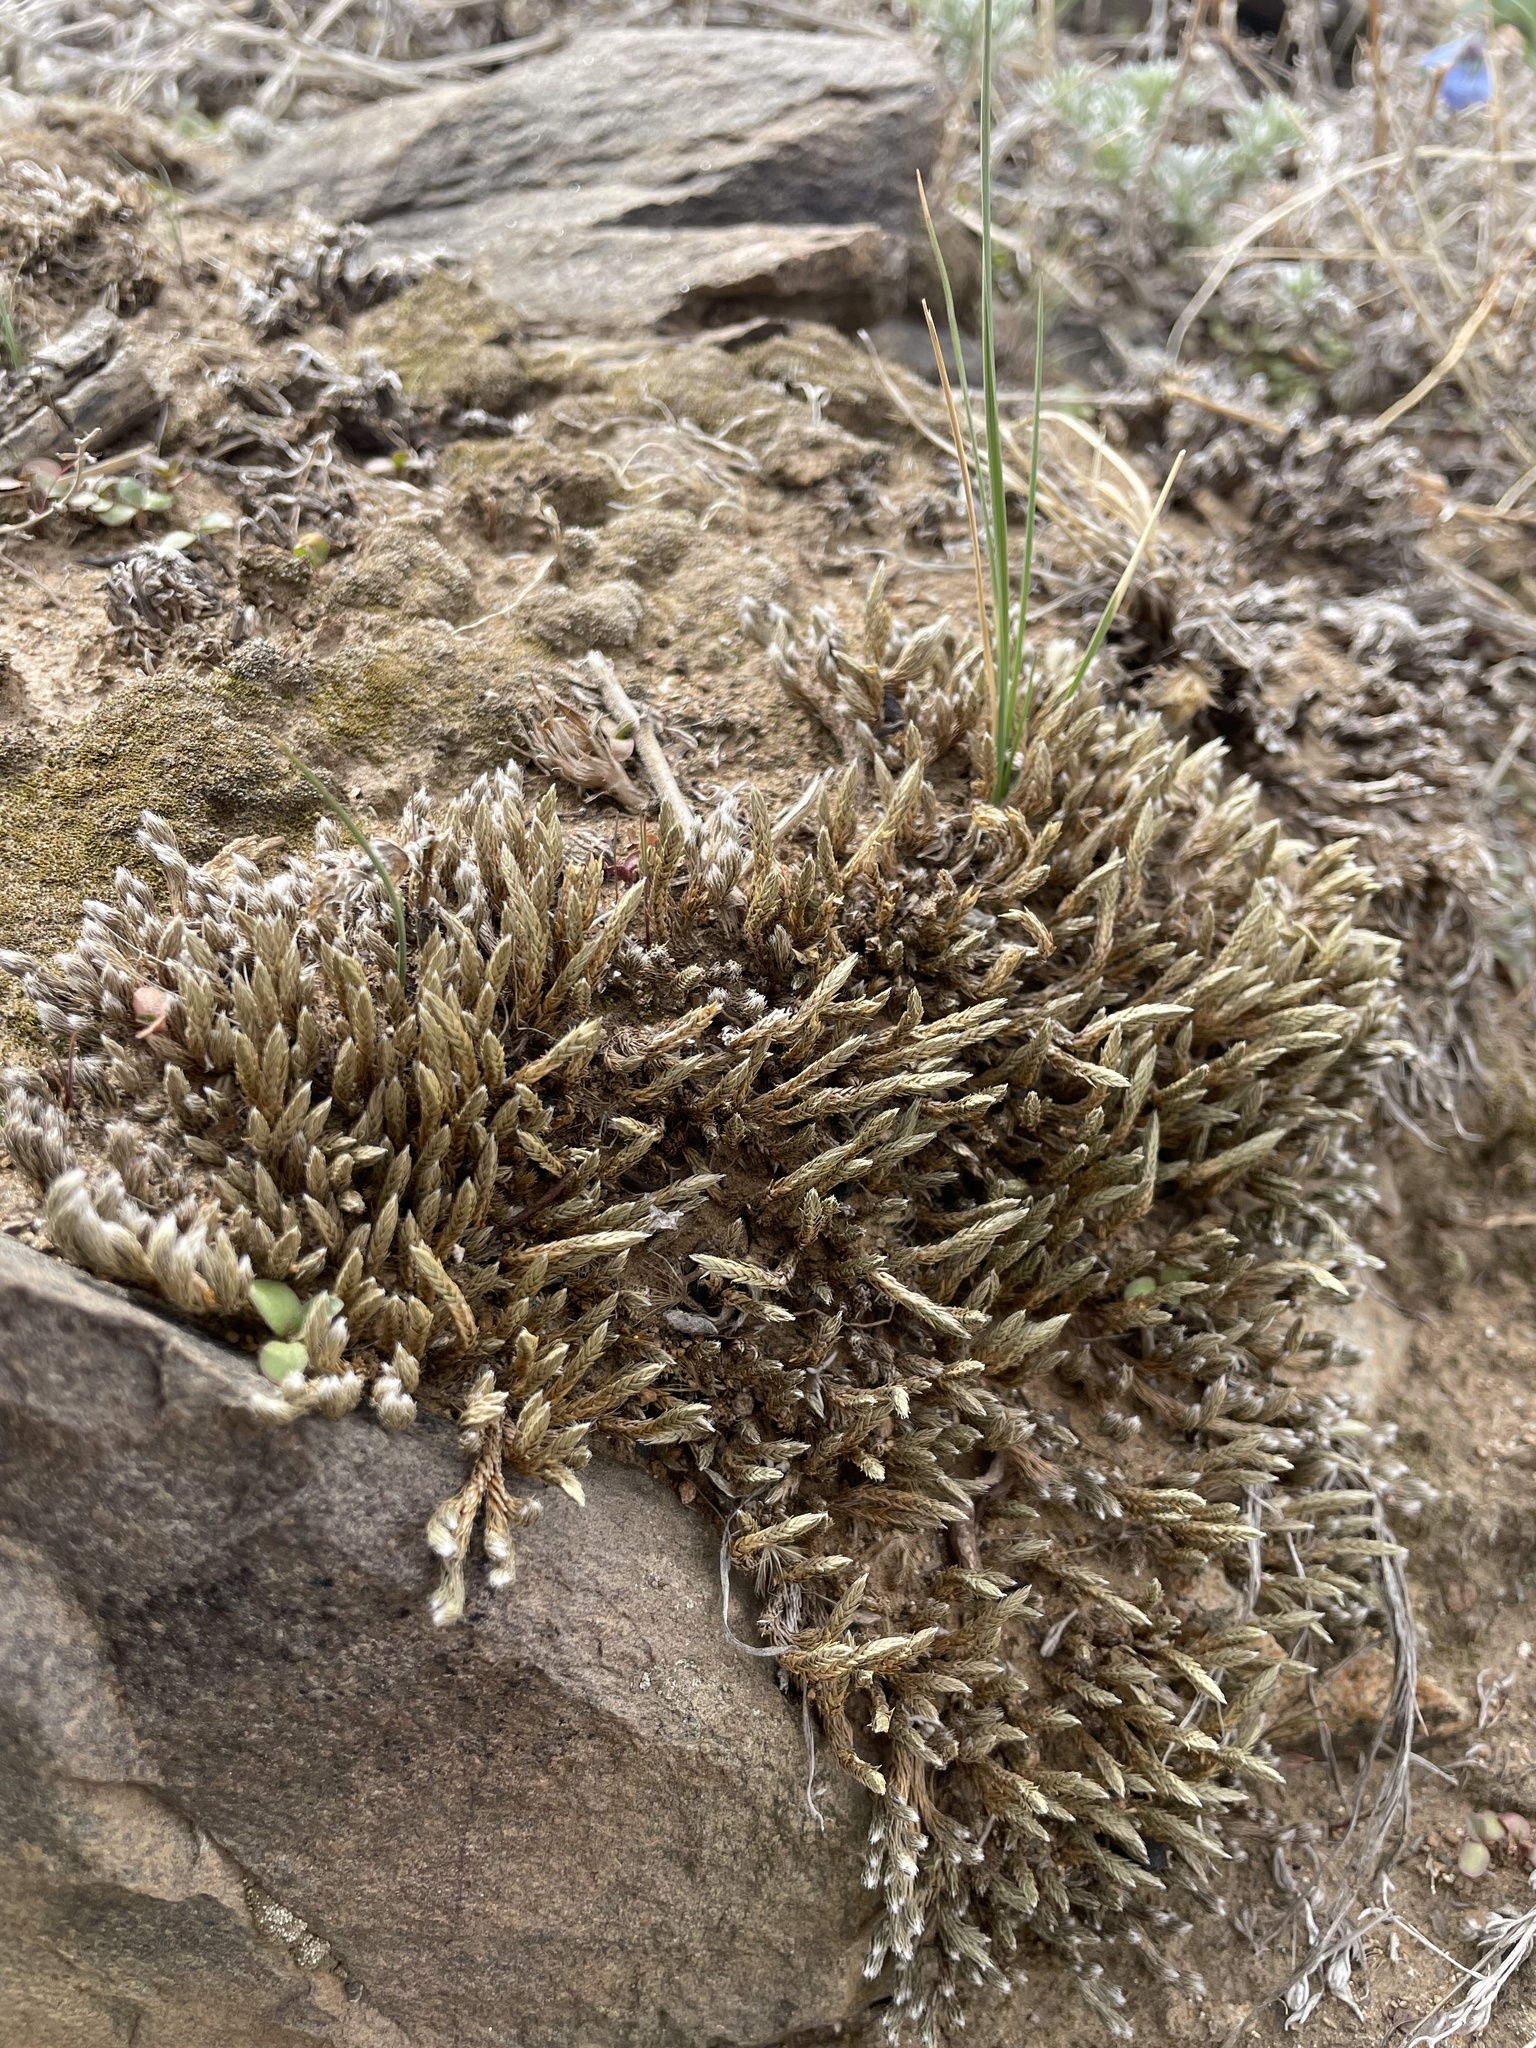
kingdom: Plantae
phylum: Tracheophyta
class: Lycopodiopsida
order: Selaginellales
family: Selaginellaceae
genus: Selaginella
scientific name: Selaginella densa
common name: Mountain spike-moss
